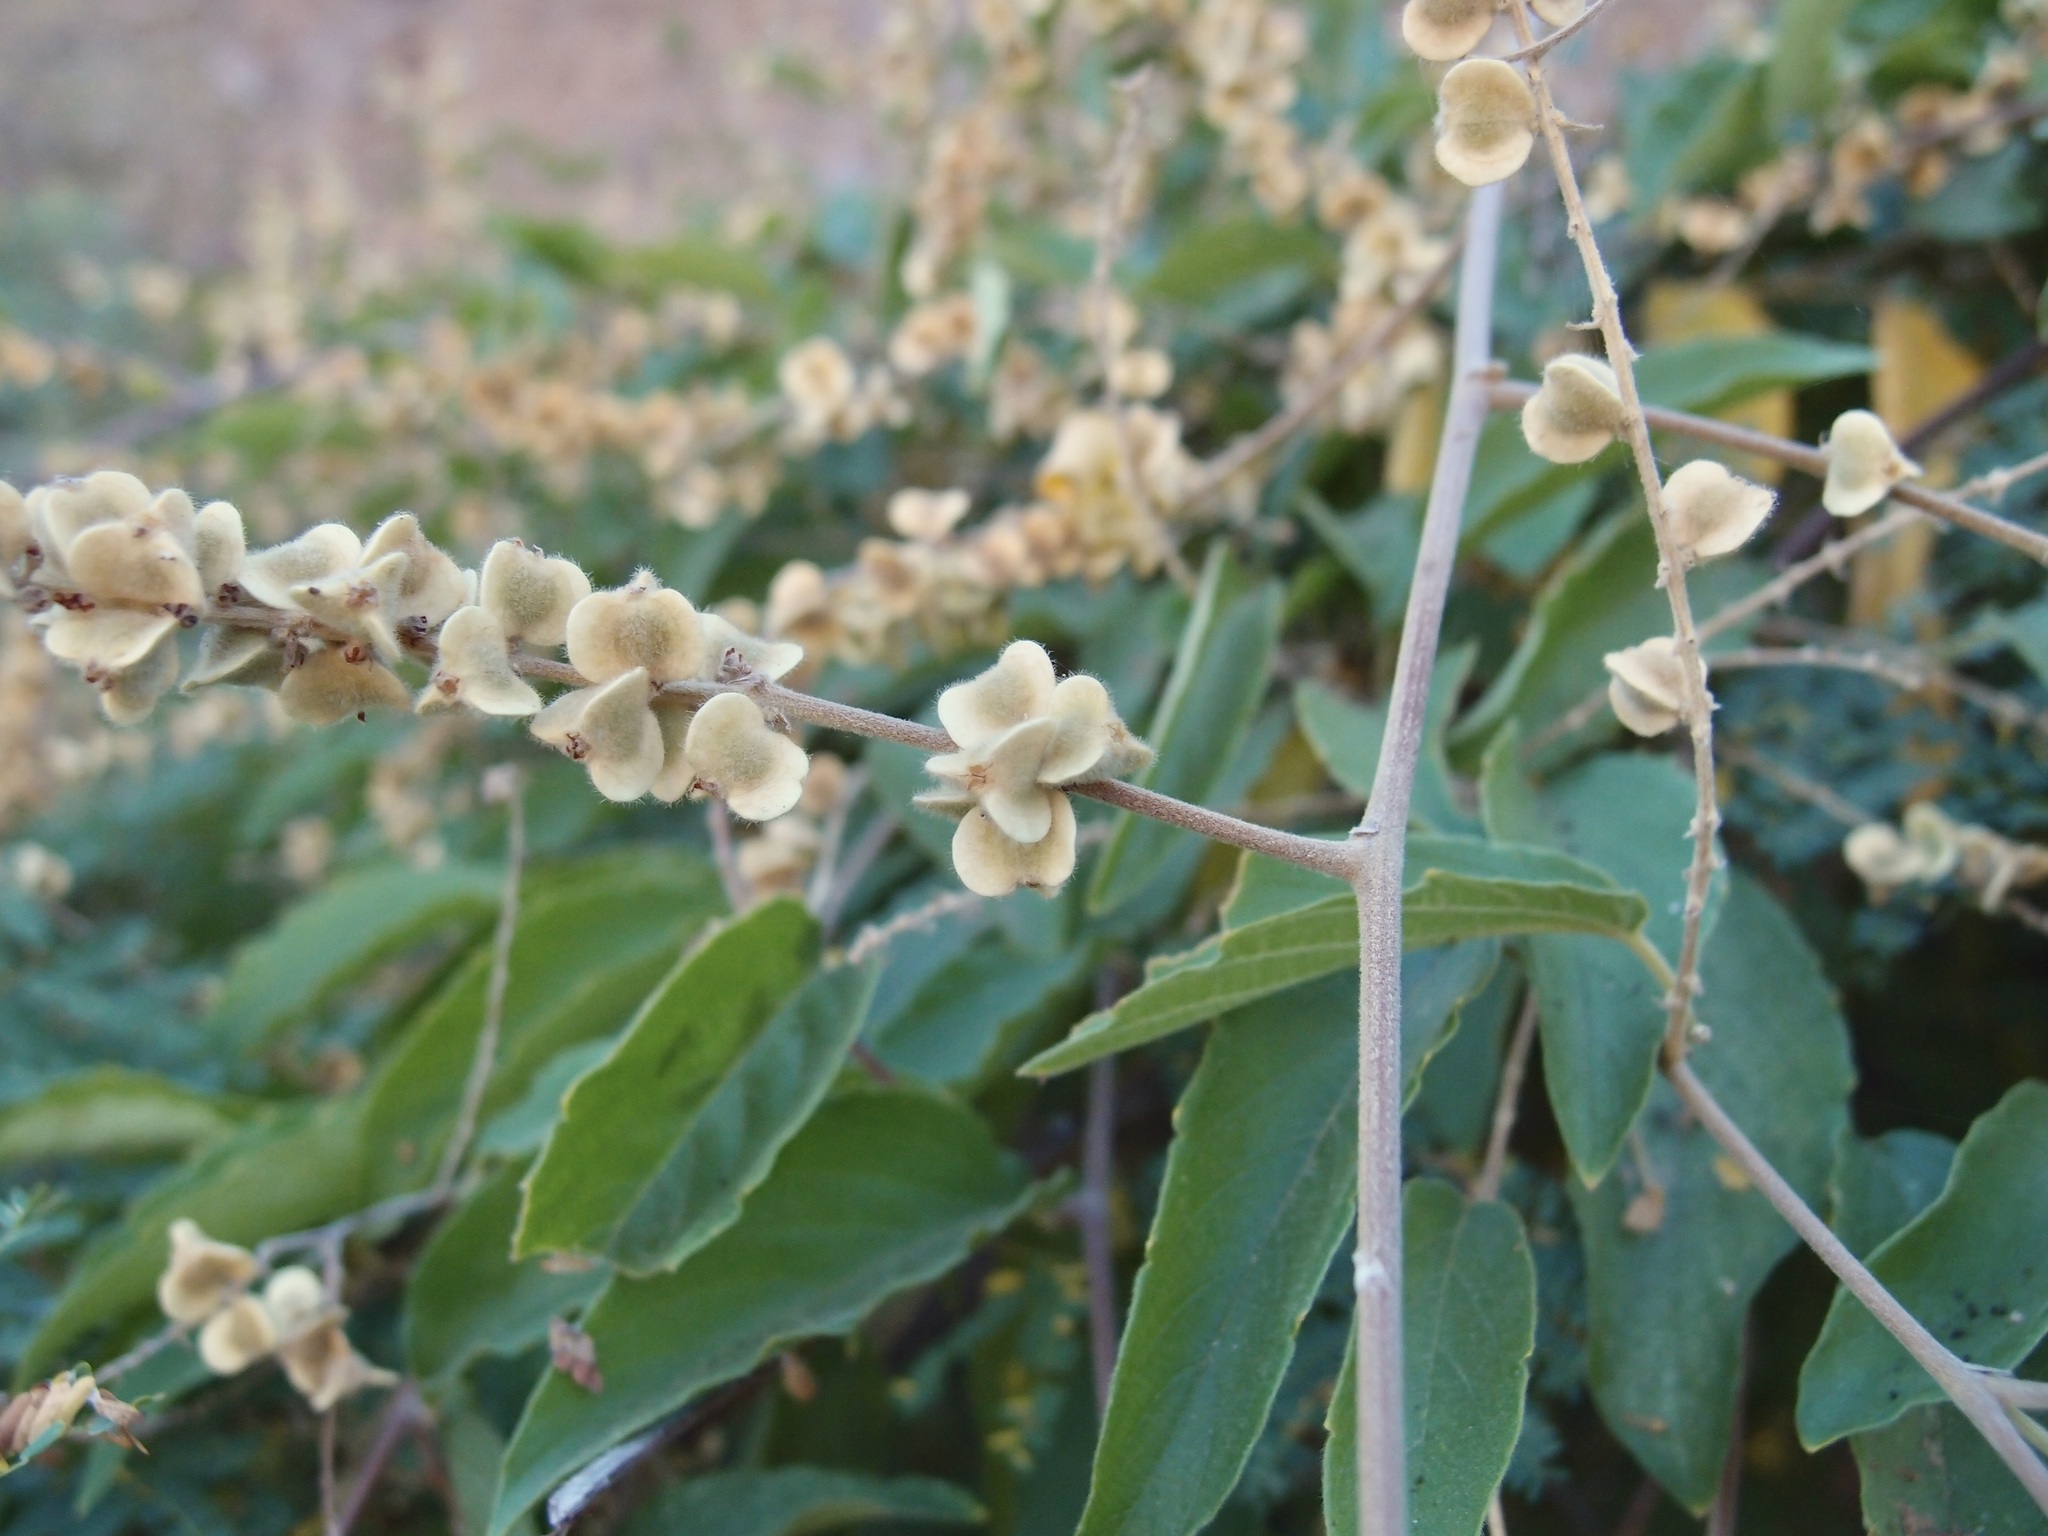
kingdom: Plantae
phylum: Tracheophyta
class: Magnoliopsida
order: Rosales
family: Rhamnaceae
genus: Gouania
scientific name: Gouania rosei
